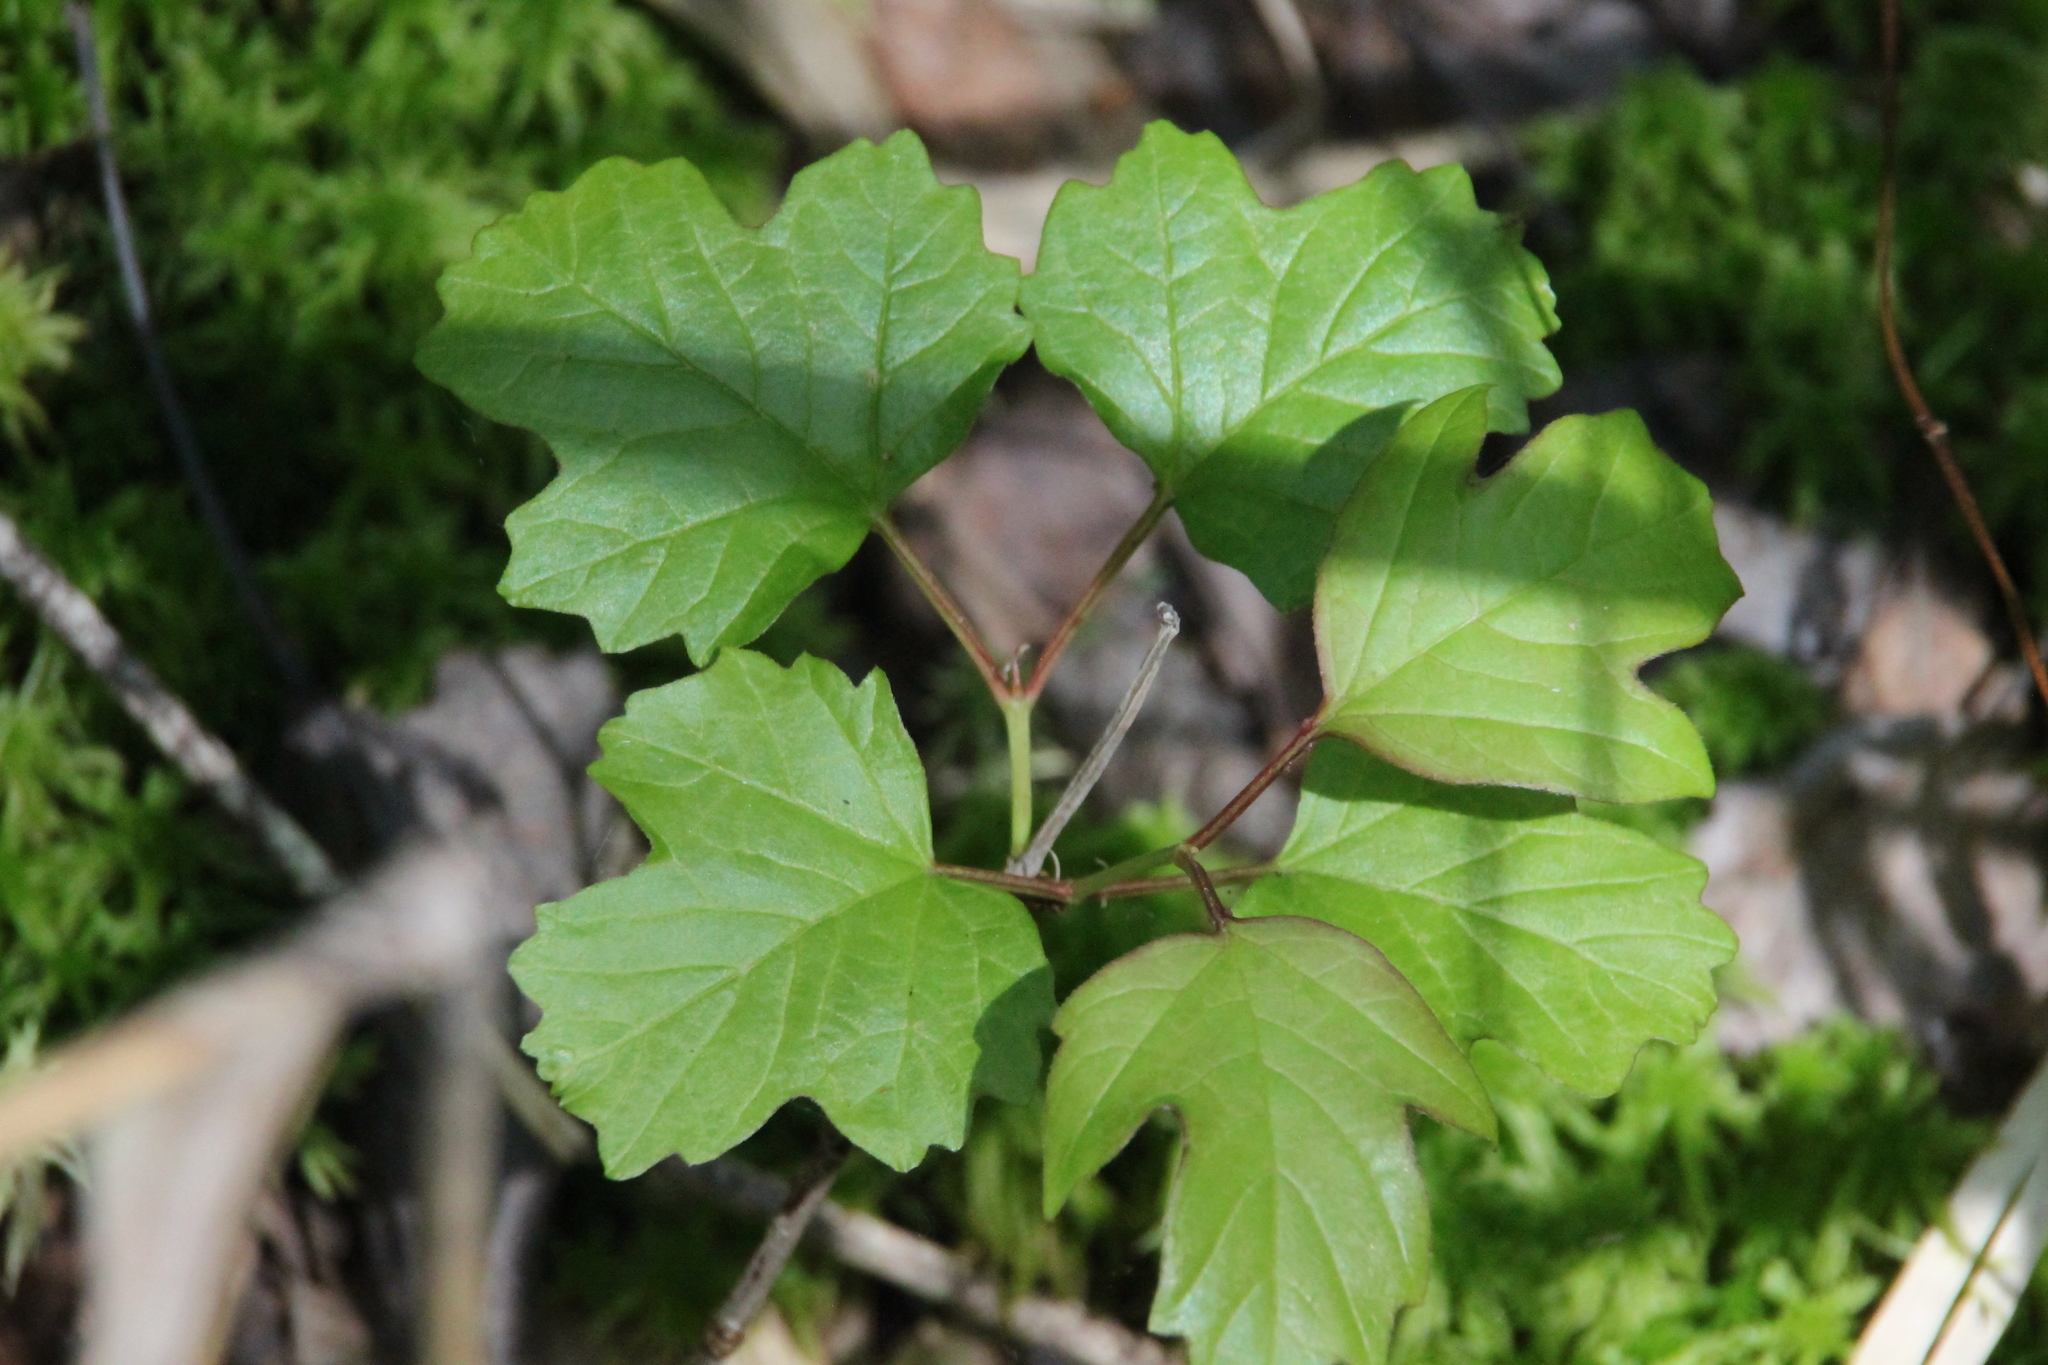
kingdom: Plantae
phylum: Tracheophyta
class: Magnoliopsida
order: Dipsacales
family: Viburnaceae
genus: Viburnum
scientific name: Viburnum opulus
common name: Guelder-rose
